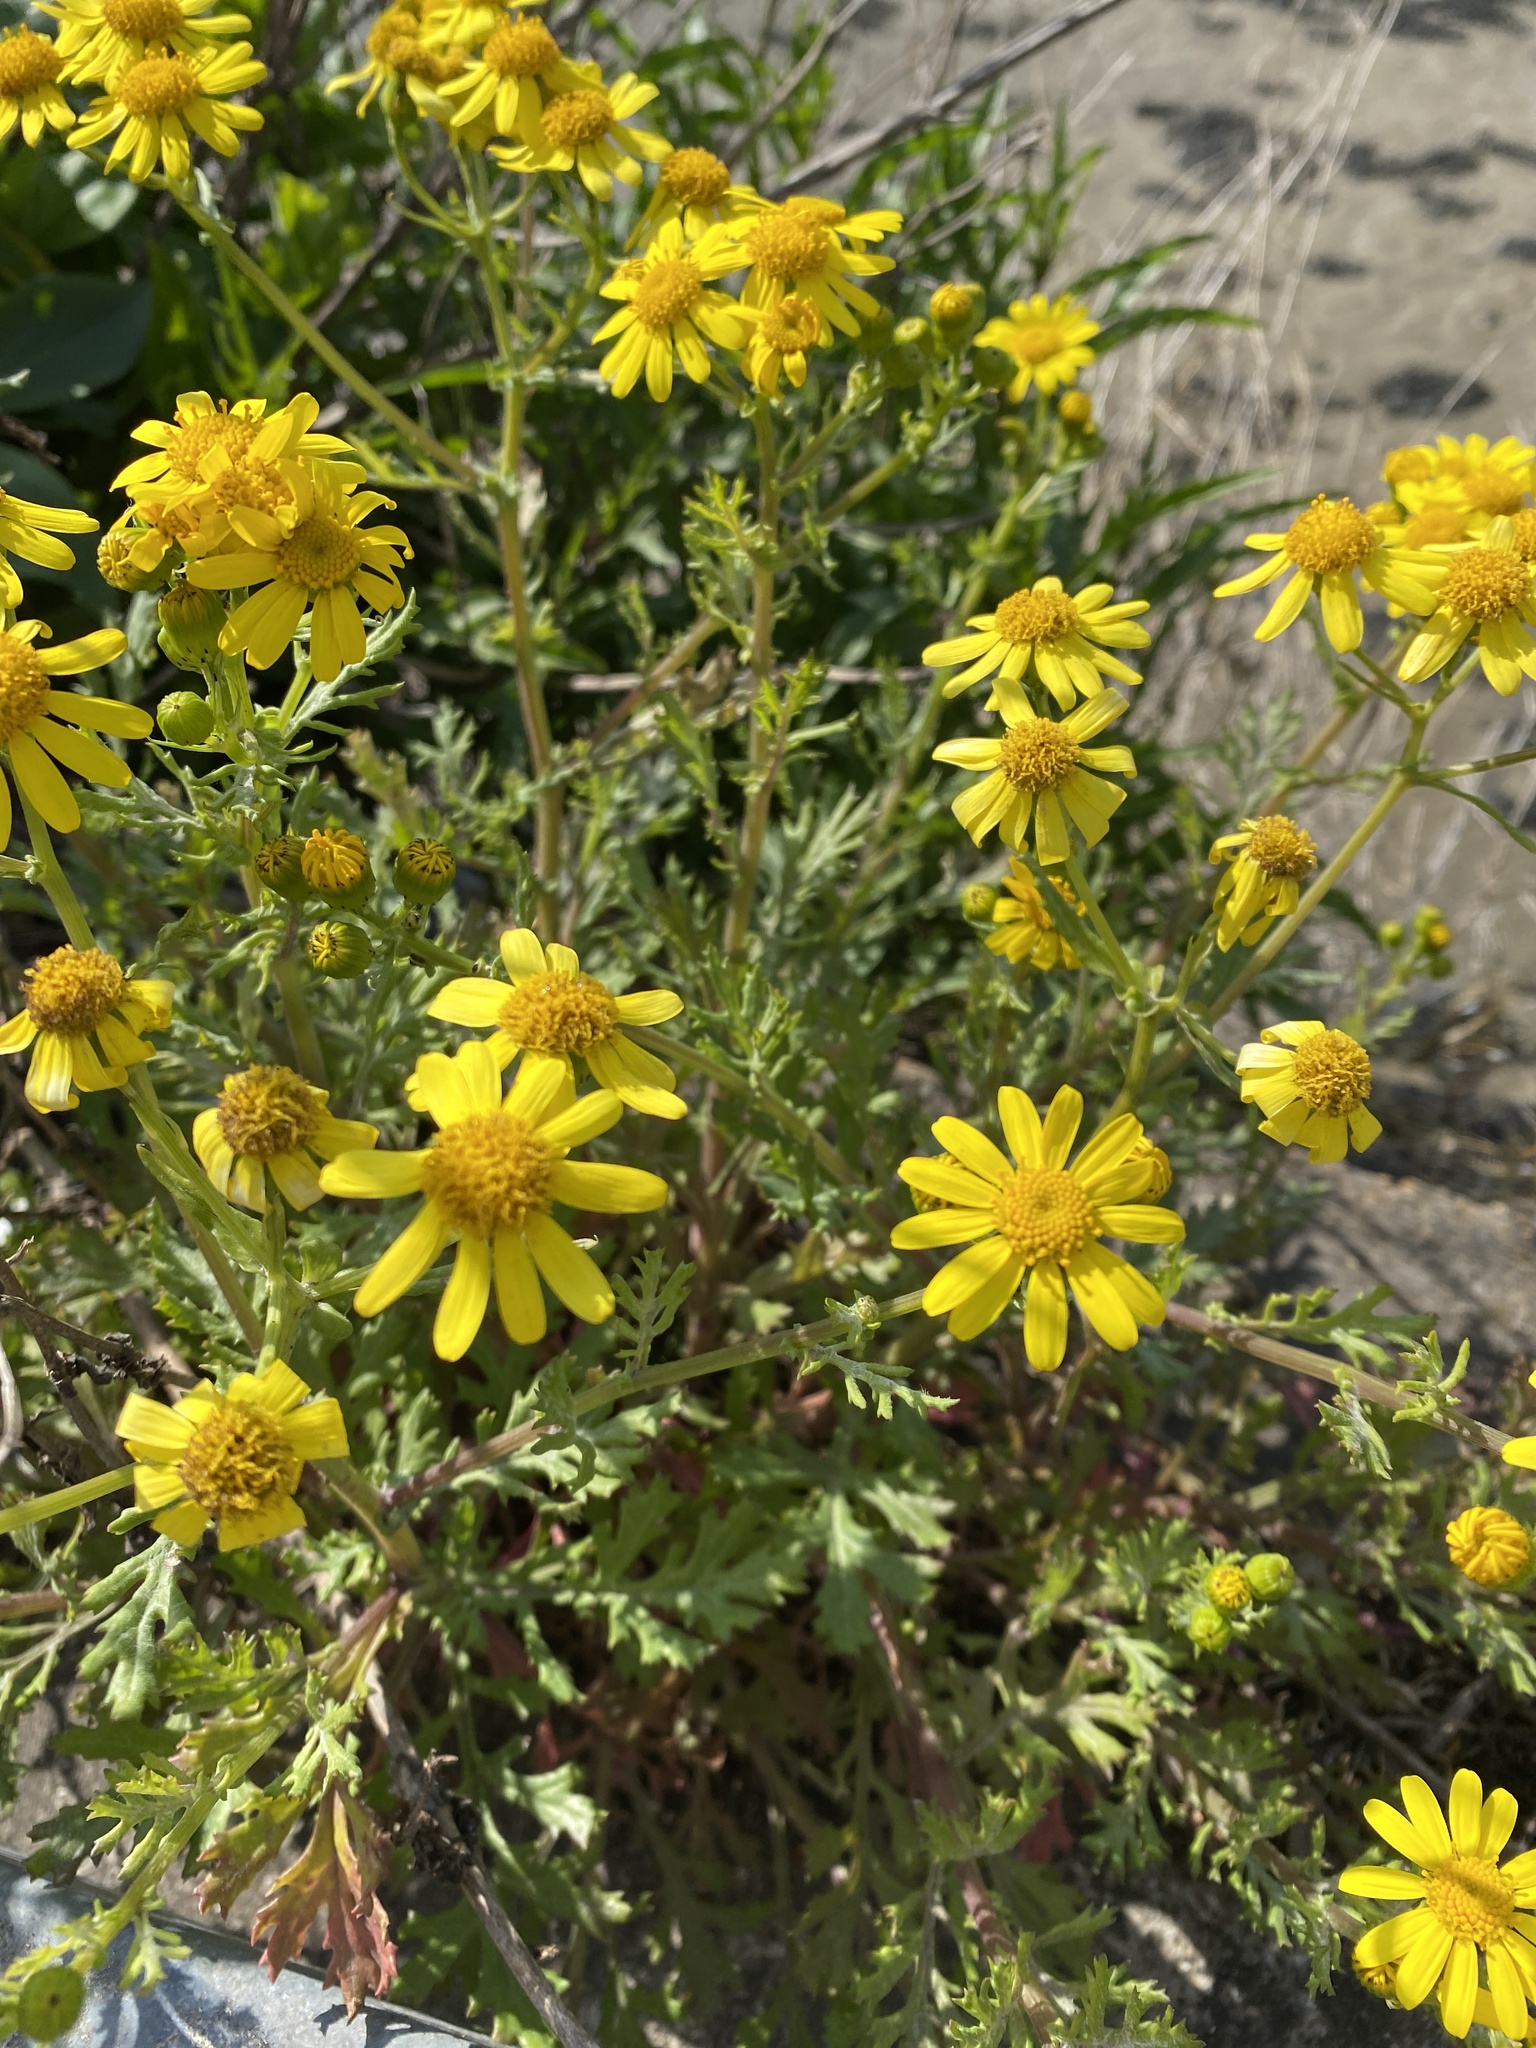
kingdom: Plantae
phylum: Tracheophyta
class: Magnoliopsida
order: Asterales
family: Asteraceae
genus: Senecio
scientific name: Senecio squalidus
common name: Oxford ragwort
